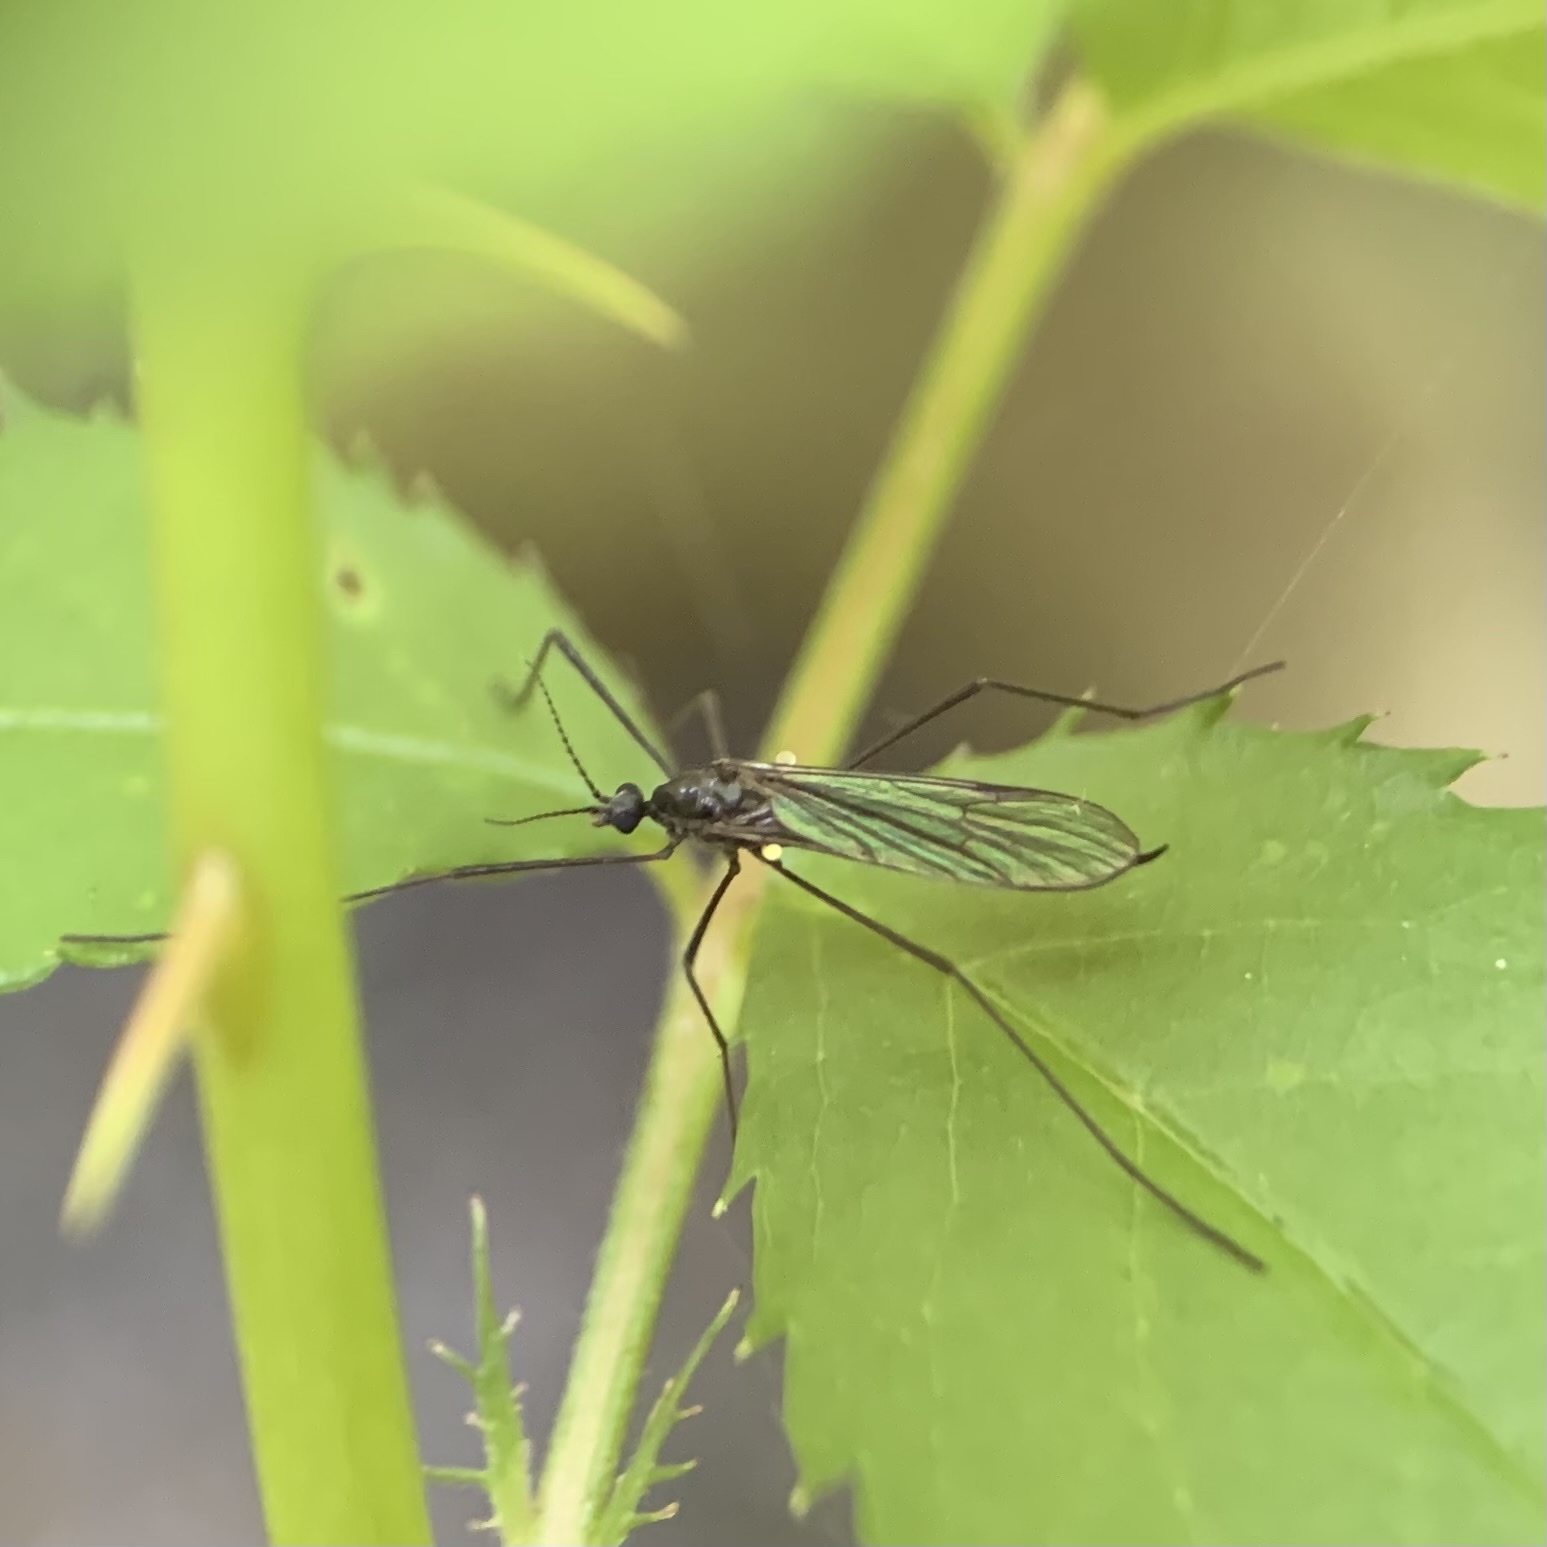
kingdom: Animalia
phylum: Arthropoda
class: Insecta
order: Diptera
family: Limoniidae
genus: Gnophomyia
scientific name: Gnophomyia tristissima
